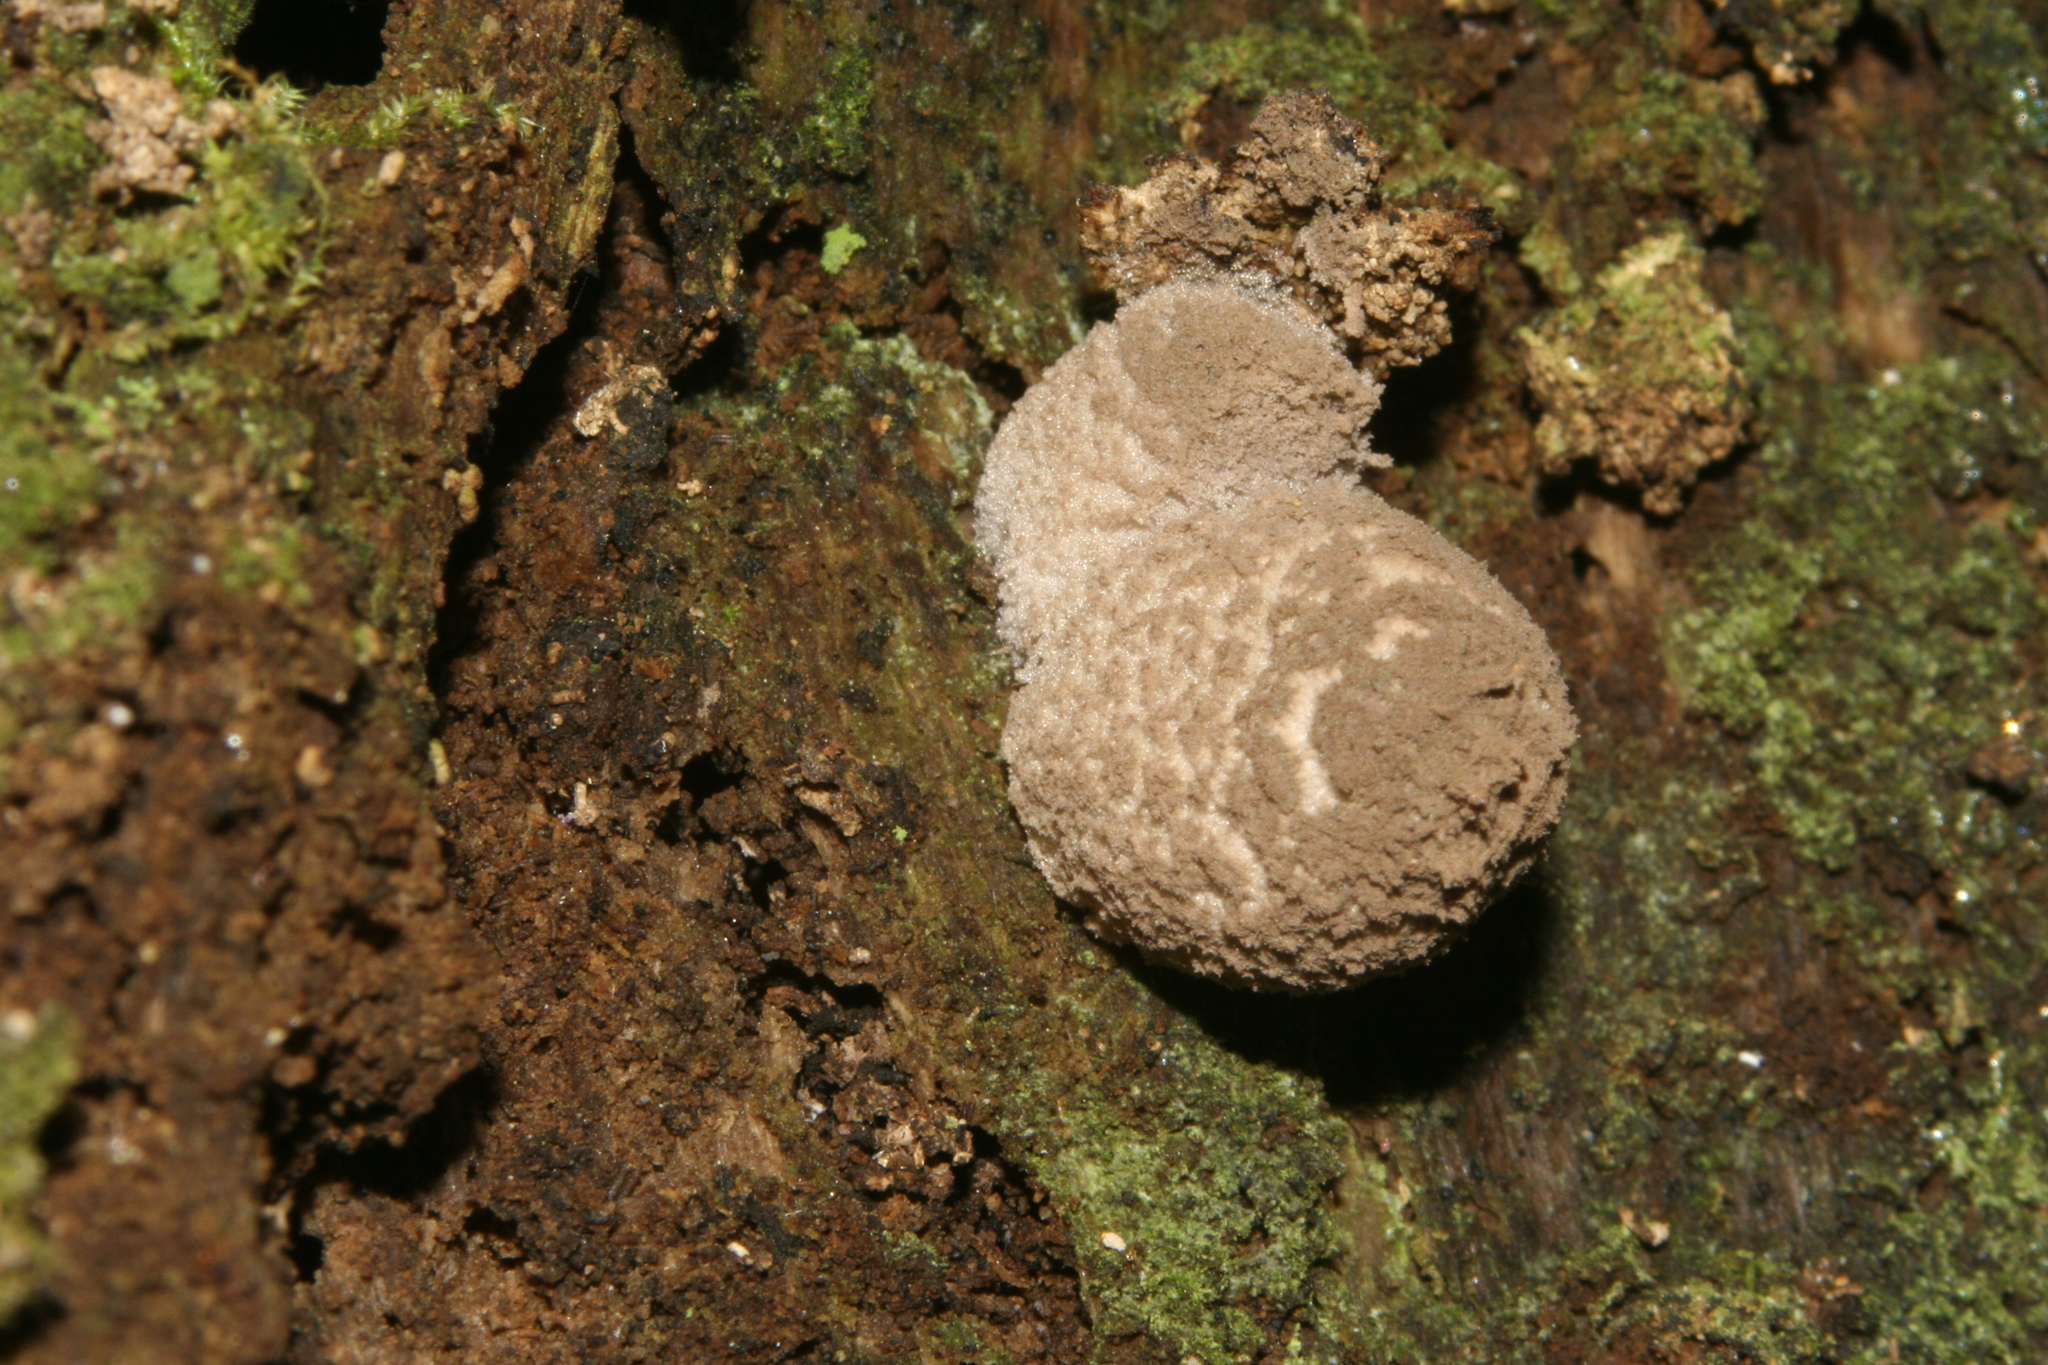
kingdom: Fungi
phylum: Basidiomycota
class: Agaricomycetes
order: Agaricales
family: Psathyrellaceae
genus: Coprinopsis
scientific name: Coprinopsis laanii
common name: Dotty inkcap
